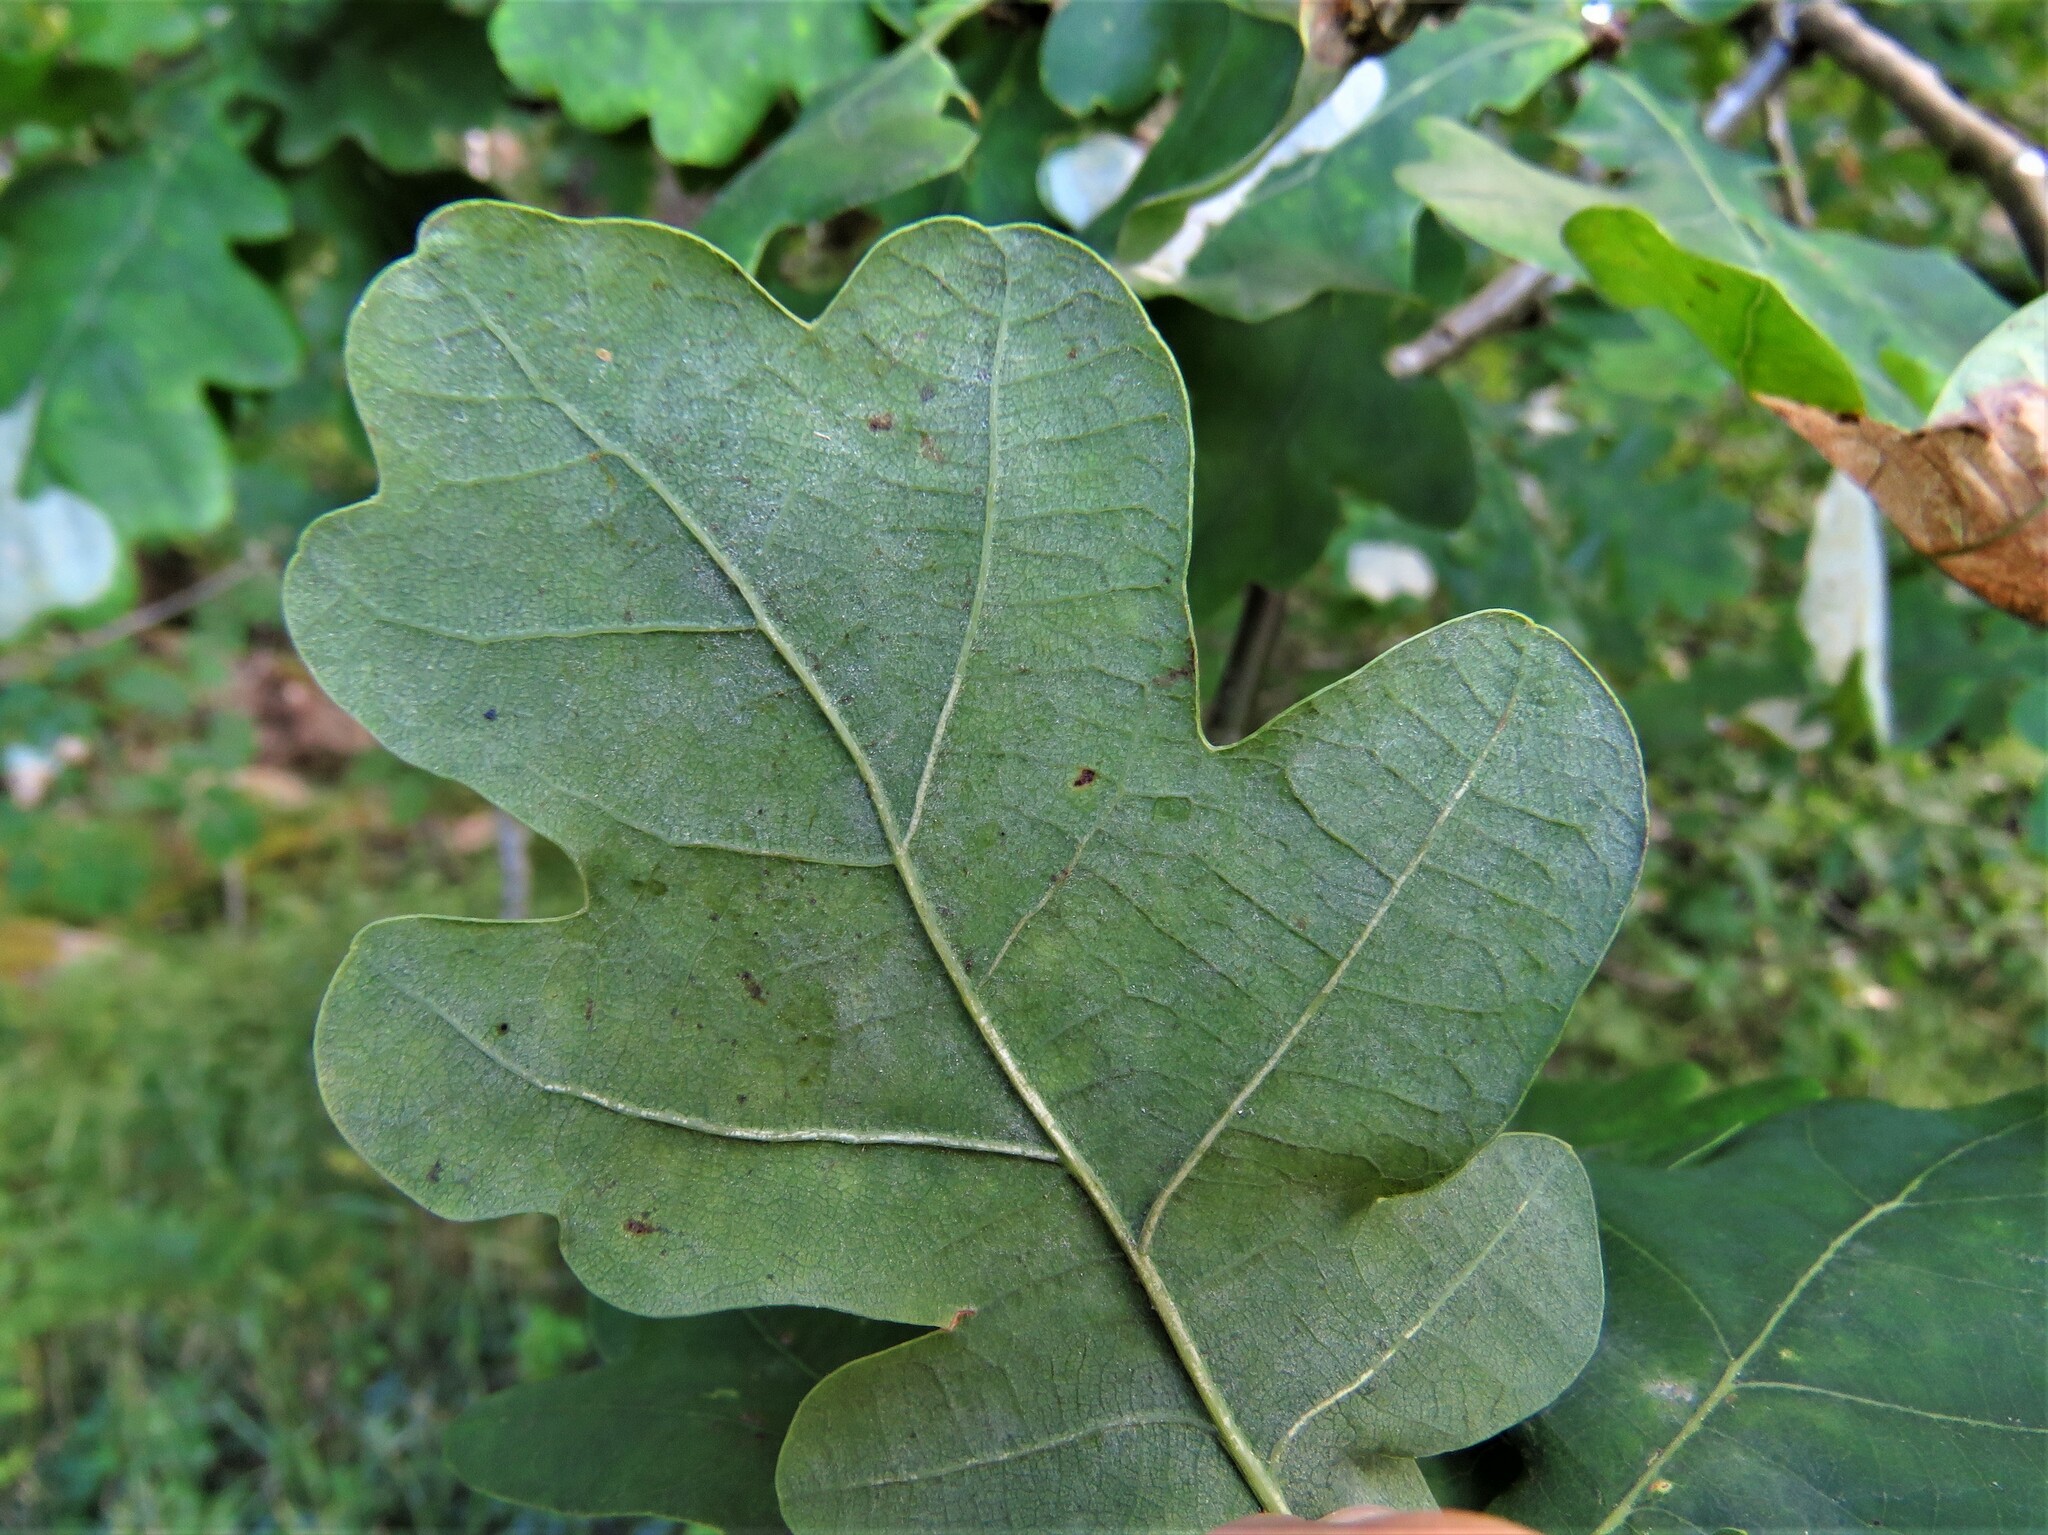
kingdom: Animalia
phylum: Arthropoda
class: Insecta
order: Lepidoptera
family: Gracillariidae
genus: Acrocercops
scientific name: Acrocercops brongniardella
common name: Brown oak slender
